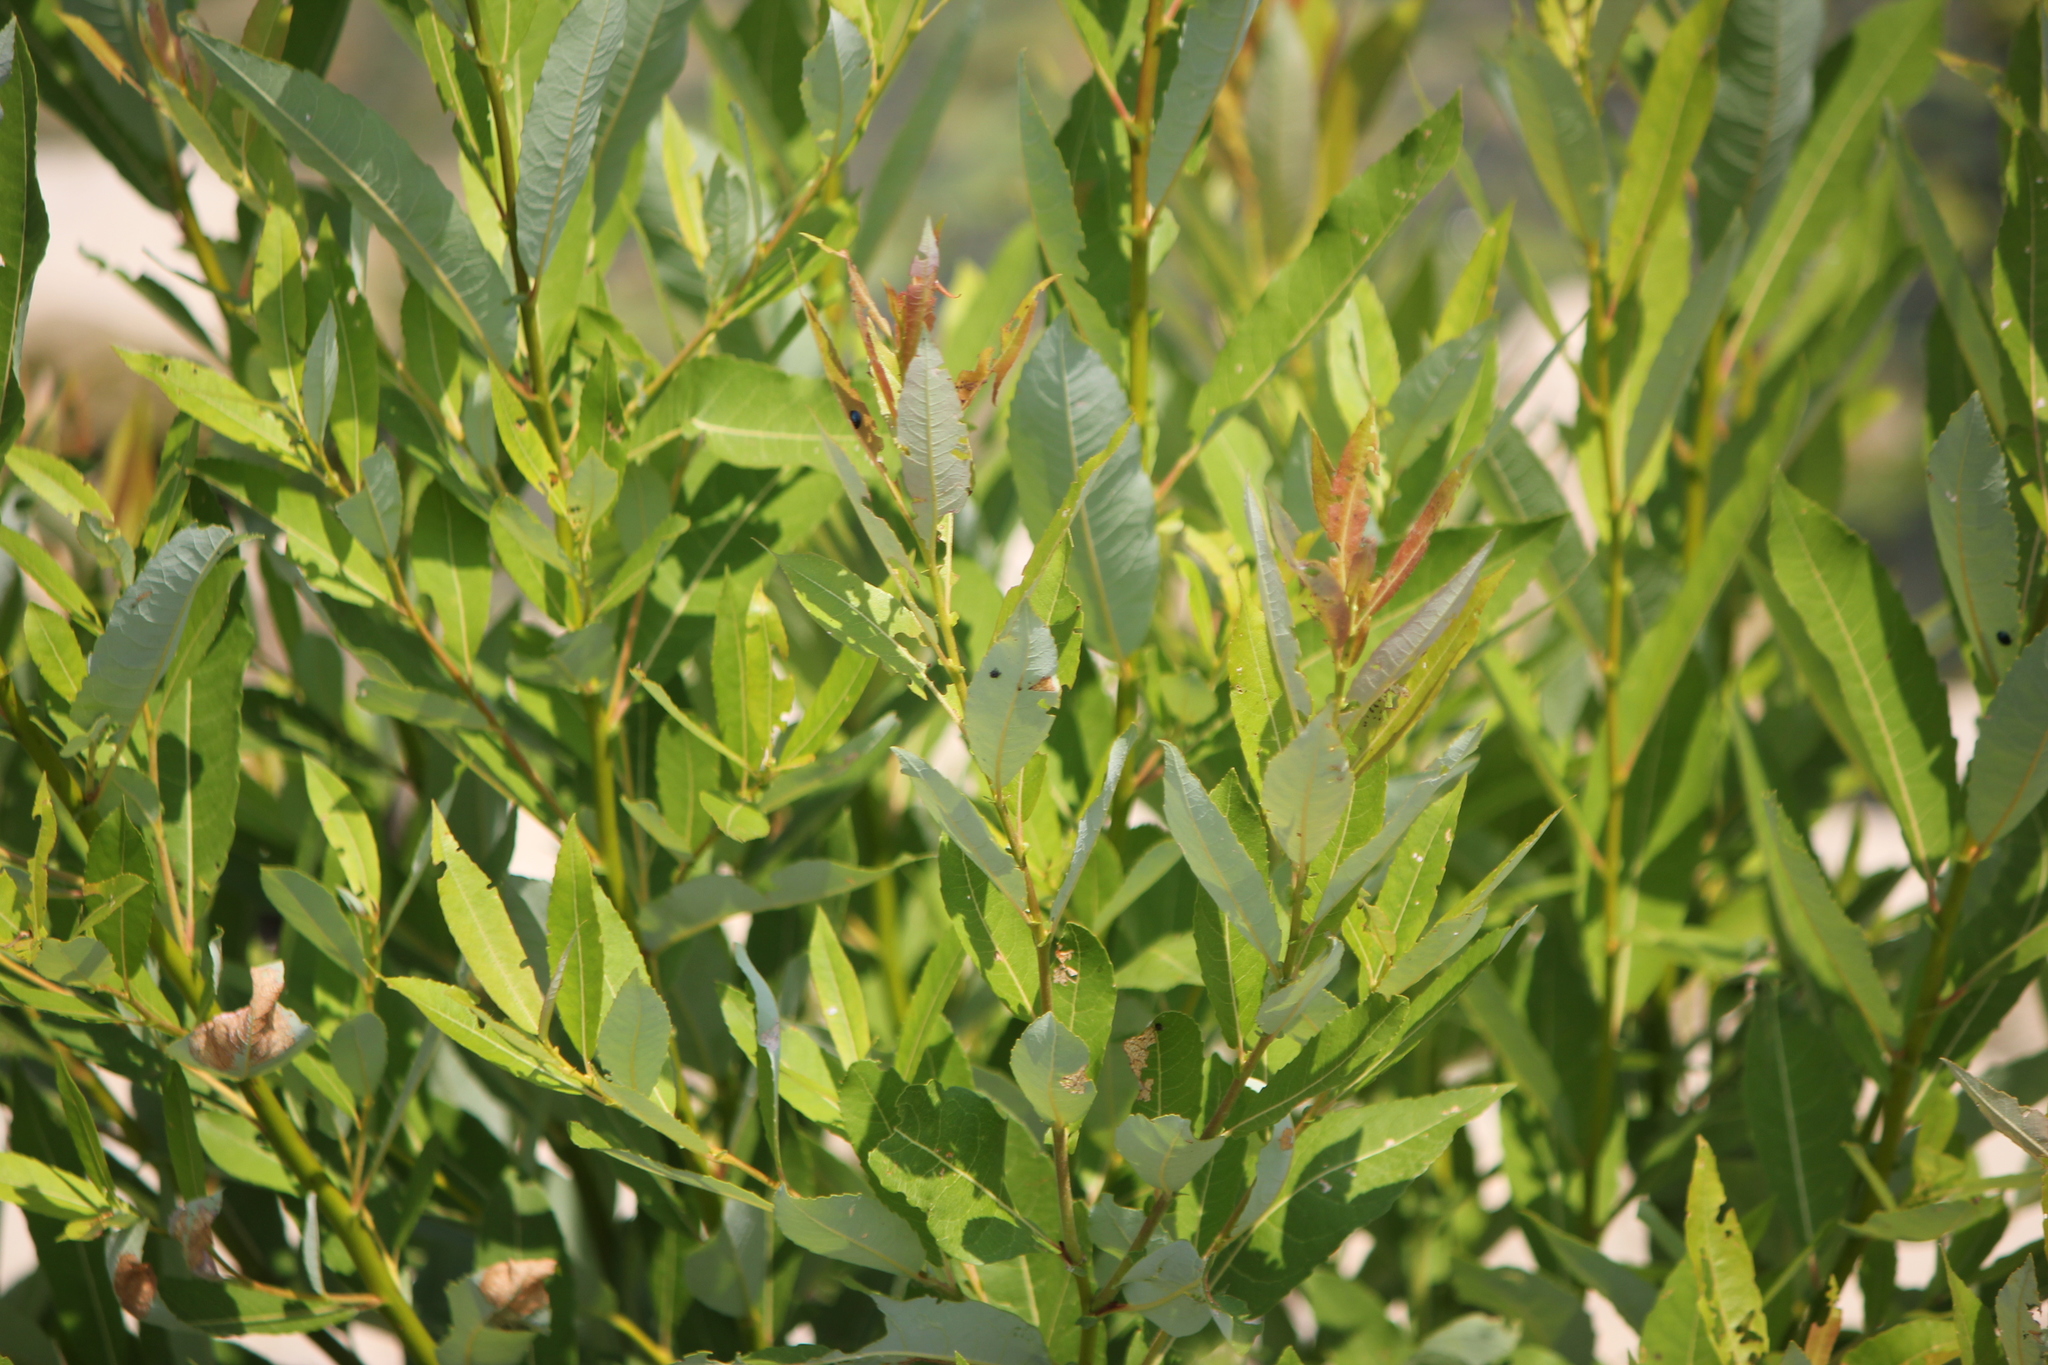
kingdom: Plantae
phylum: Tracheophyta
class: Magnoliopsida
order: Malpighiales
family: Salicaceae
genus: Salix
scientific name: Salix eriocephala
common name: Heart-leaved willow
